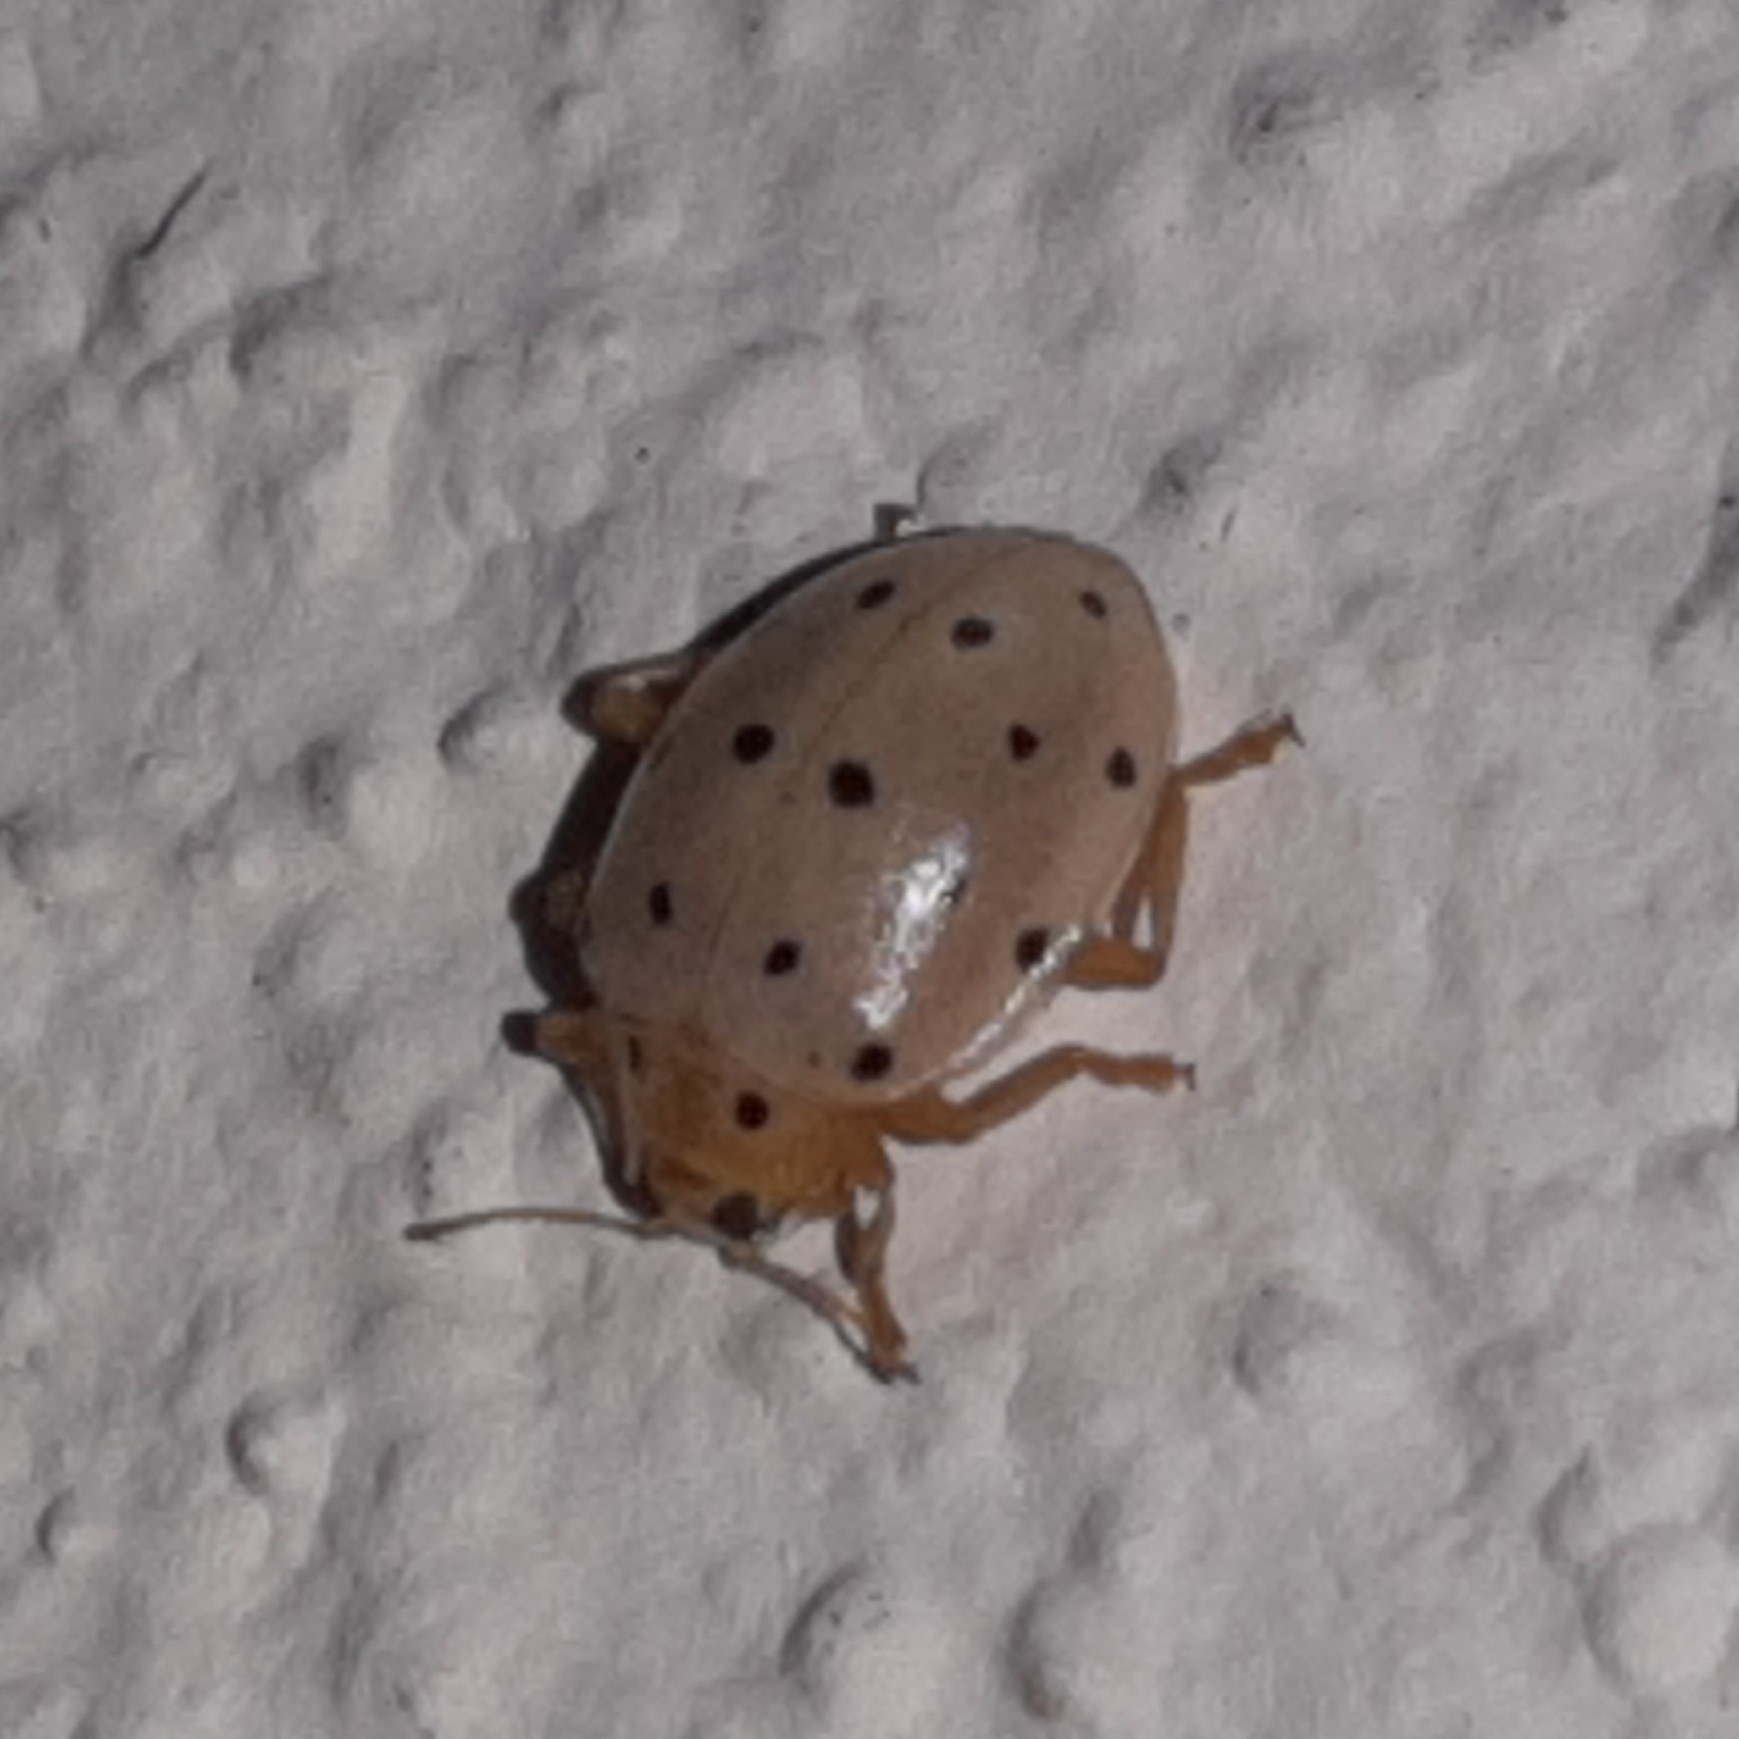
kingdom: Animalia
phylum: Arthropoda
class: Insecta
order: Coleoptera
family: Coccinellidae
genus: Neohalyzia
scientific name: Neohalyzia
